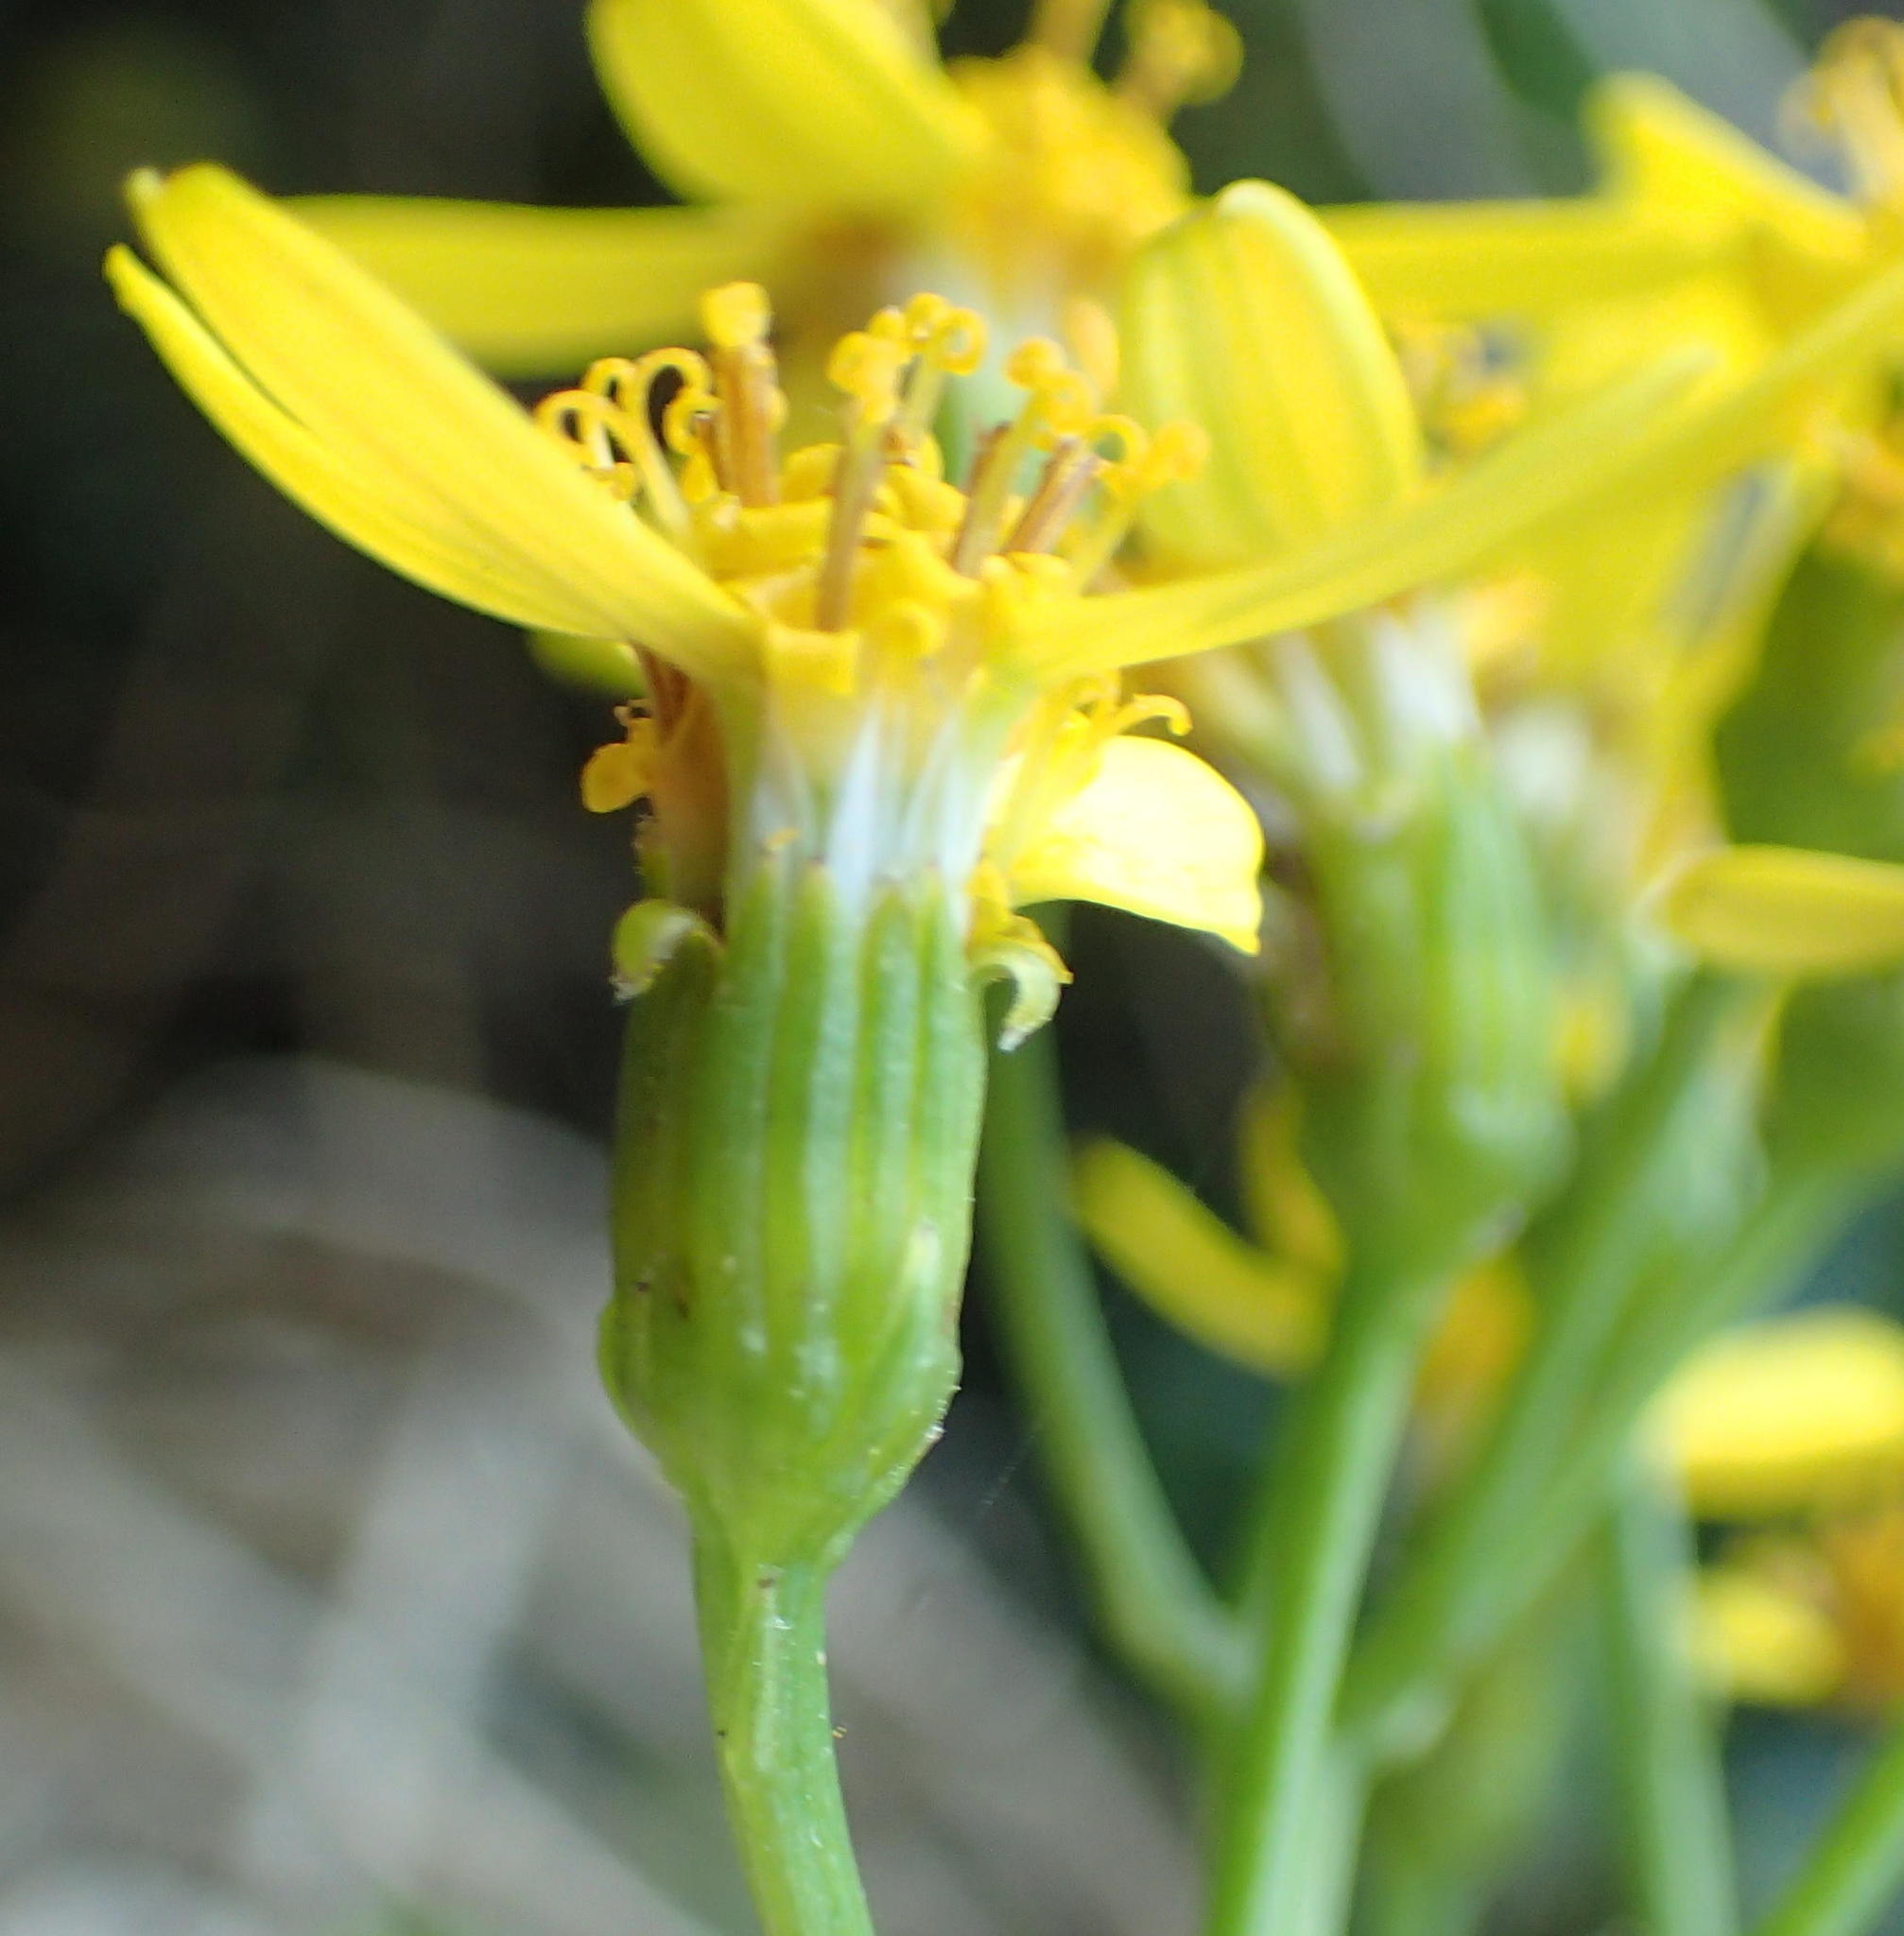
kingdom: Plantae
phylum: Tracheophyta
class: Magnoliopsida
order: Asterales
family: Asteraceae
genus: Senecio
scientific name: Senecio angulatus
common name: Climbing groundsel
